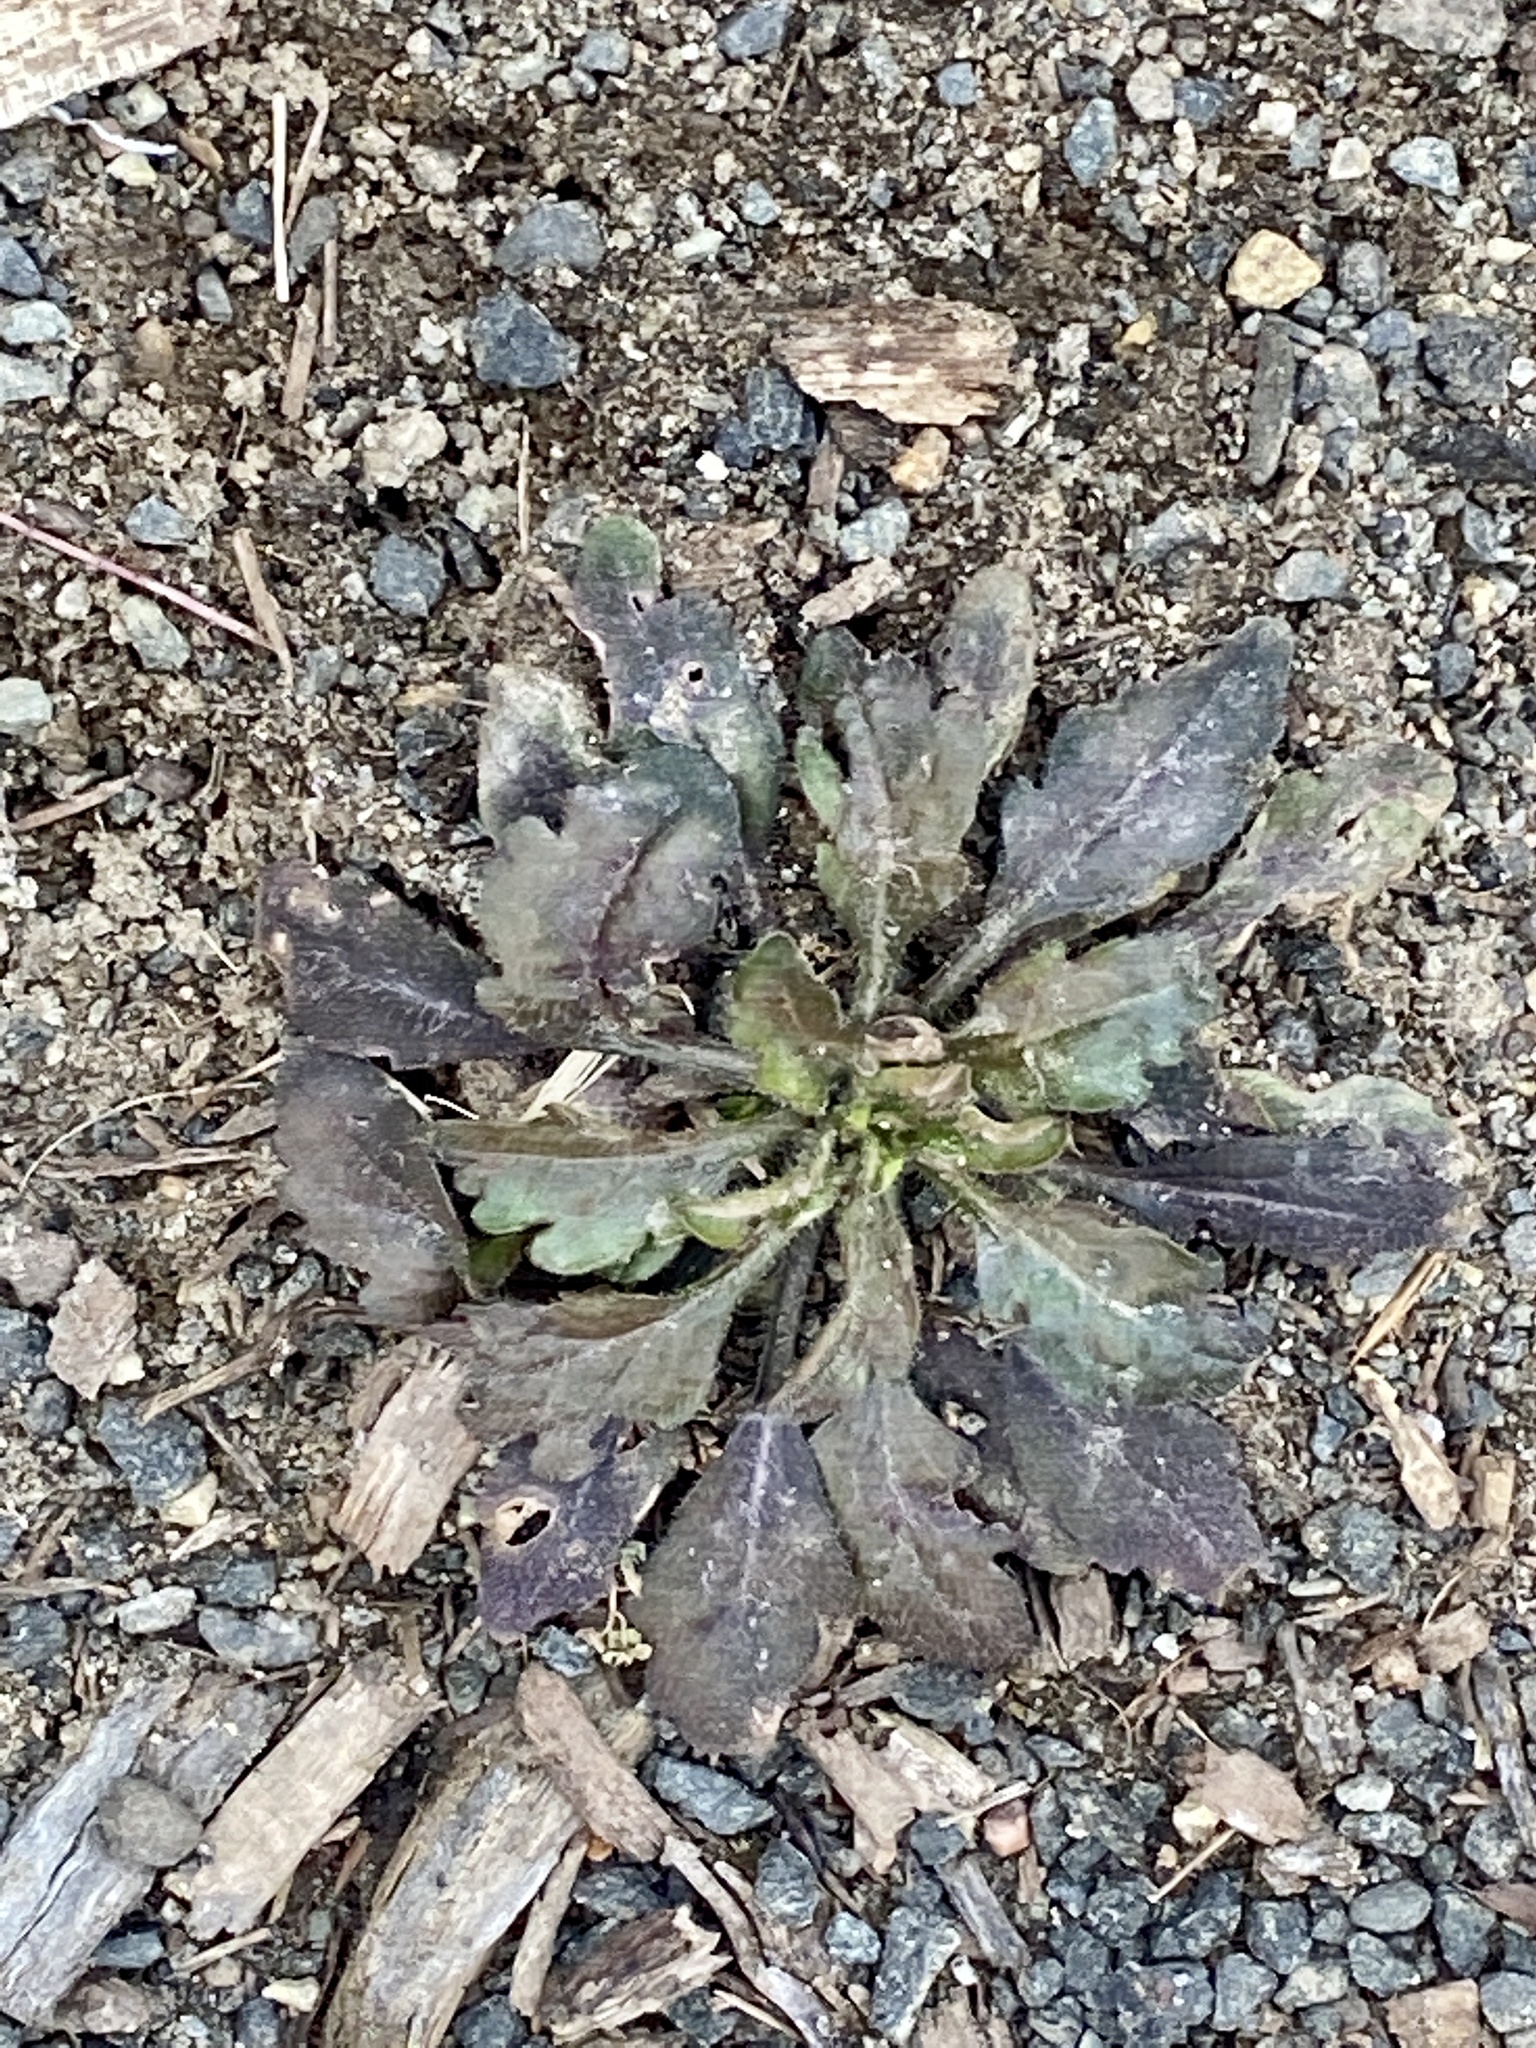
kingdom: Plantae
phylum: Tracheophyta
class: Magnoliopsida
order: Asterales
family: Asteraceae
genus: Erigeron
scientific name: Erigeron canadensis
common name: Canadian fleabane
